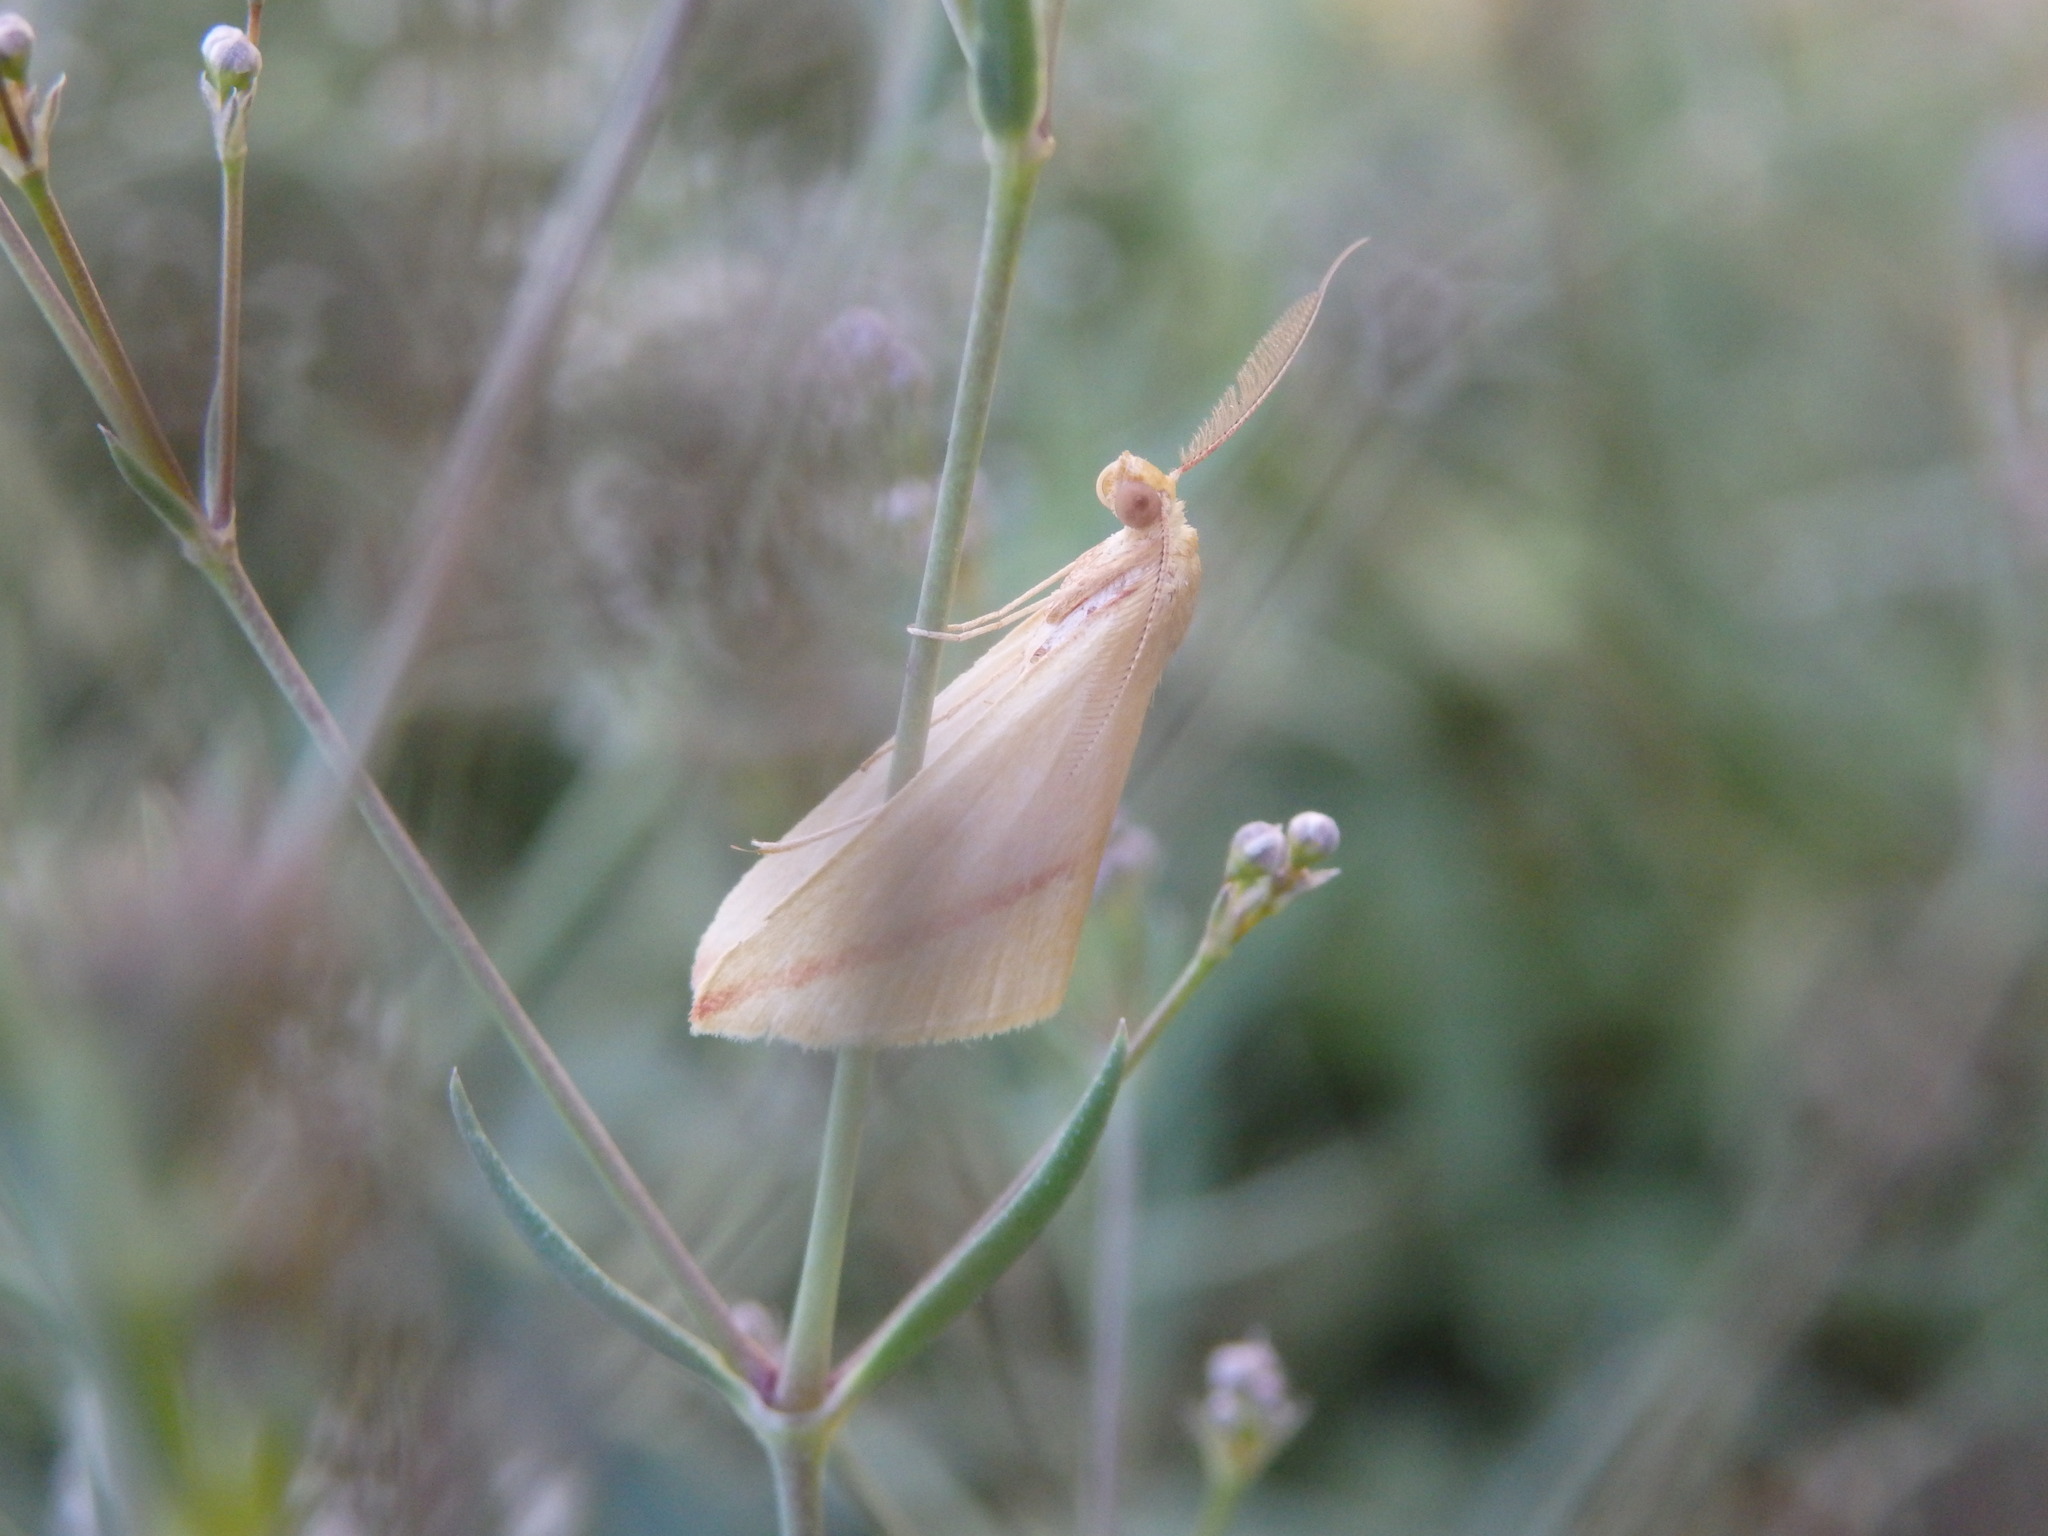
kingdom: Animalia
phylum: Arthropoda
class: Insecta
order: Lepidoptera
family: Geometridae
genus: Rhodometra
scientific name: Rhodometra sacraria
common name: Vestal
